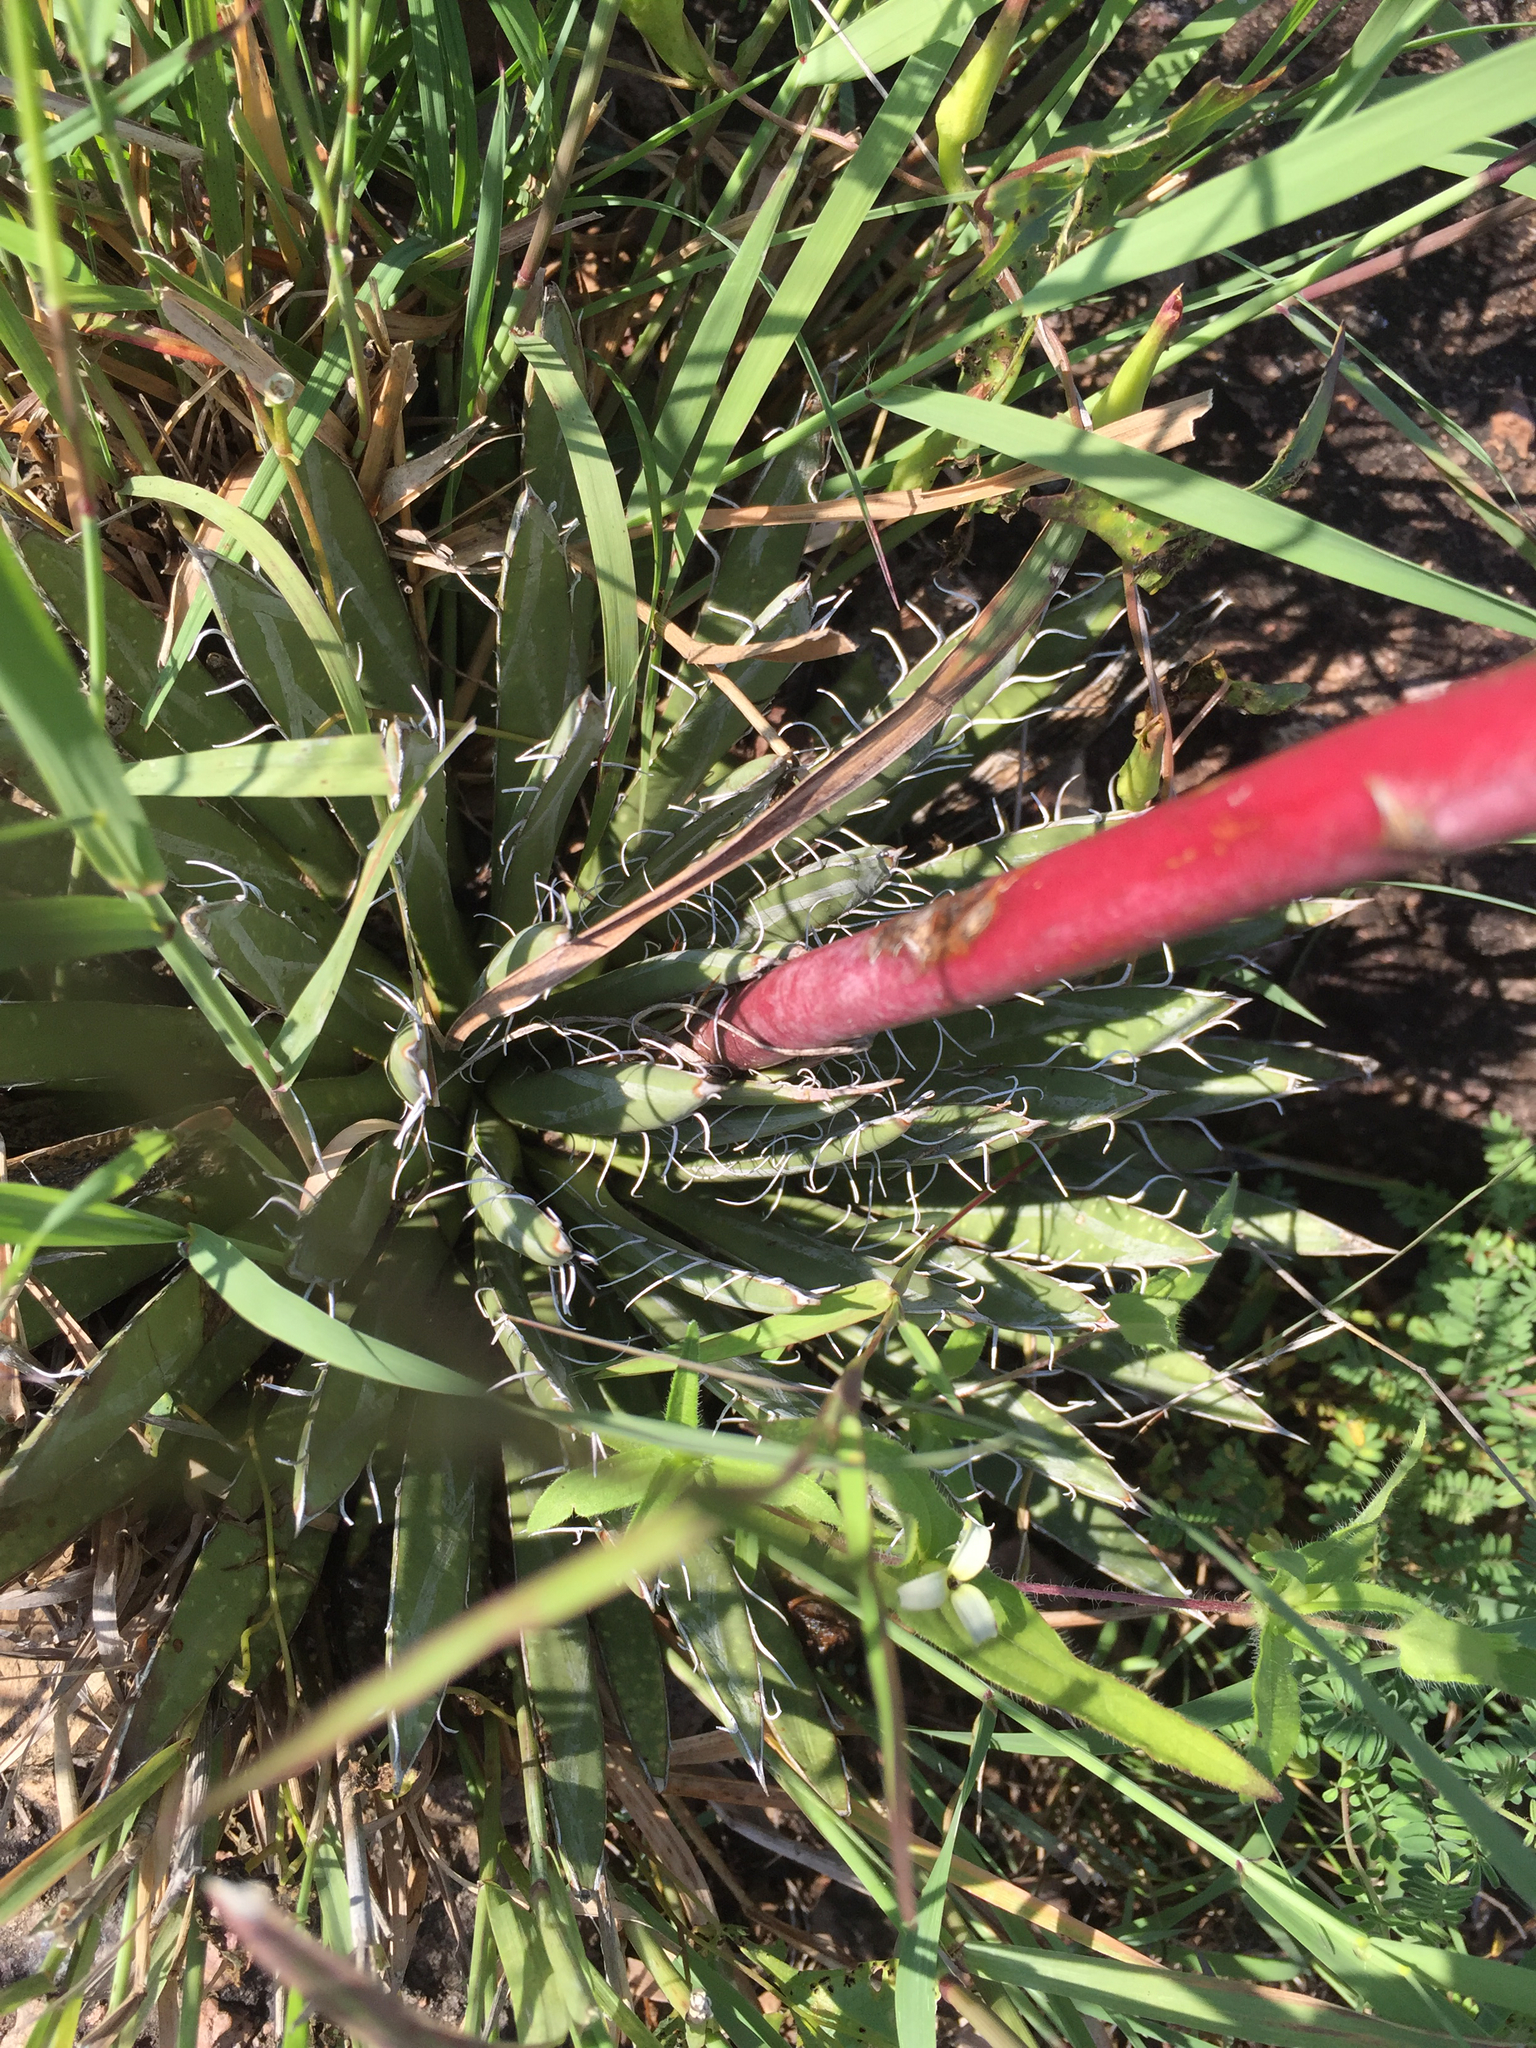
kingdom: Plantae
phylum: Tracheophyta
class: Liliopsida
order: Asparagales
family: Asparagaceae
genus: Agave
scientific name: Agave polianthiflora
